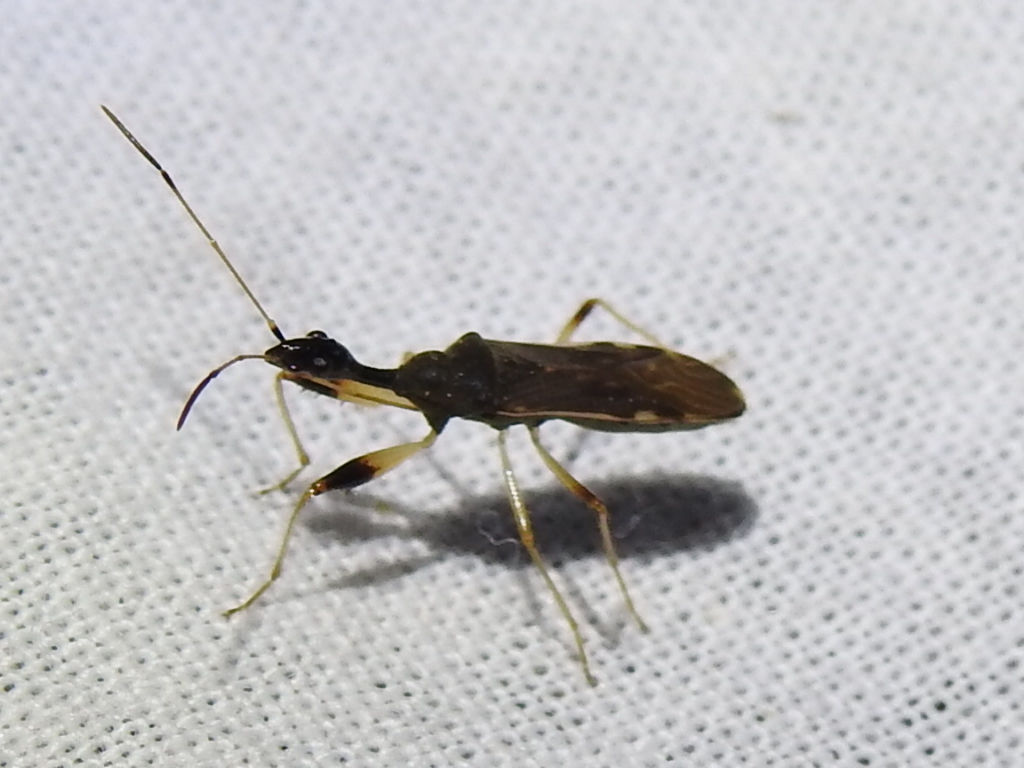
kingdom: Animalia
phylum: Arthropoda
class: Insecta
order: Hemiptera
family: Rhyparochromidae
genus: Myodocha
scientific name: Myodocha serripes
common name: Long-necked seed bug
